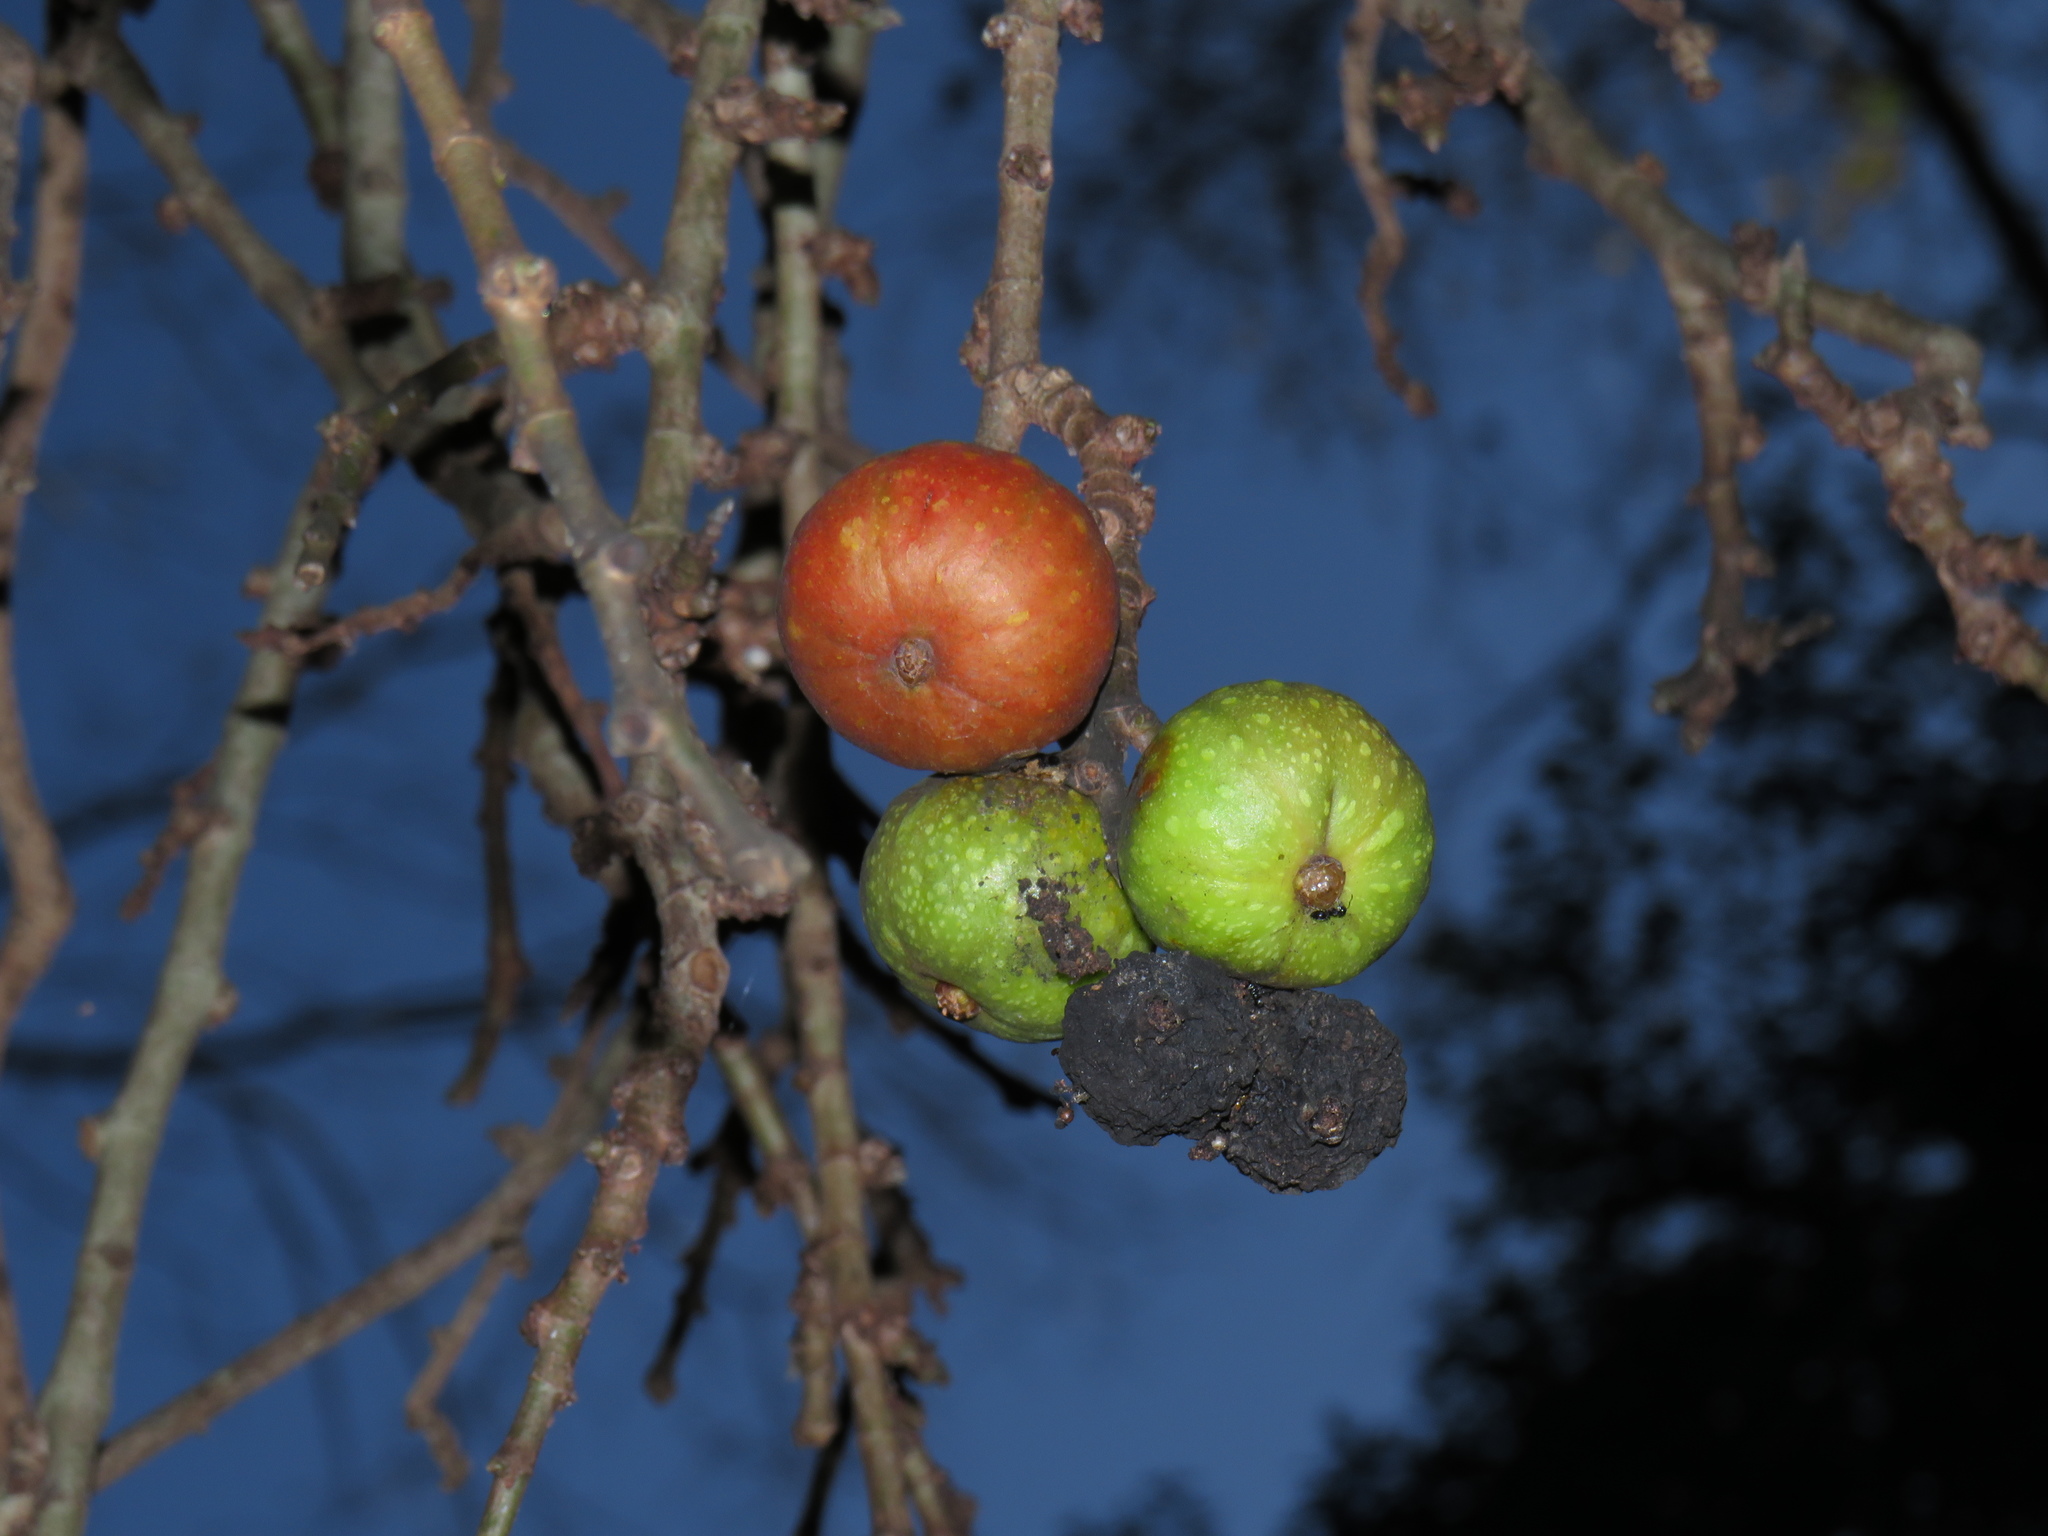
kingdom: Plantae
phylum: Tracheophyta
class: Magnoliopsida
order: Rosales
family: Moraceae
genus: Ficus
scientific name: Ficus sur
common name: Cape fig
